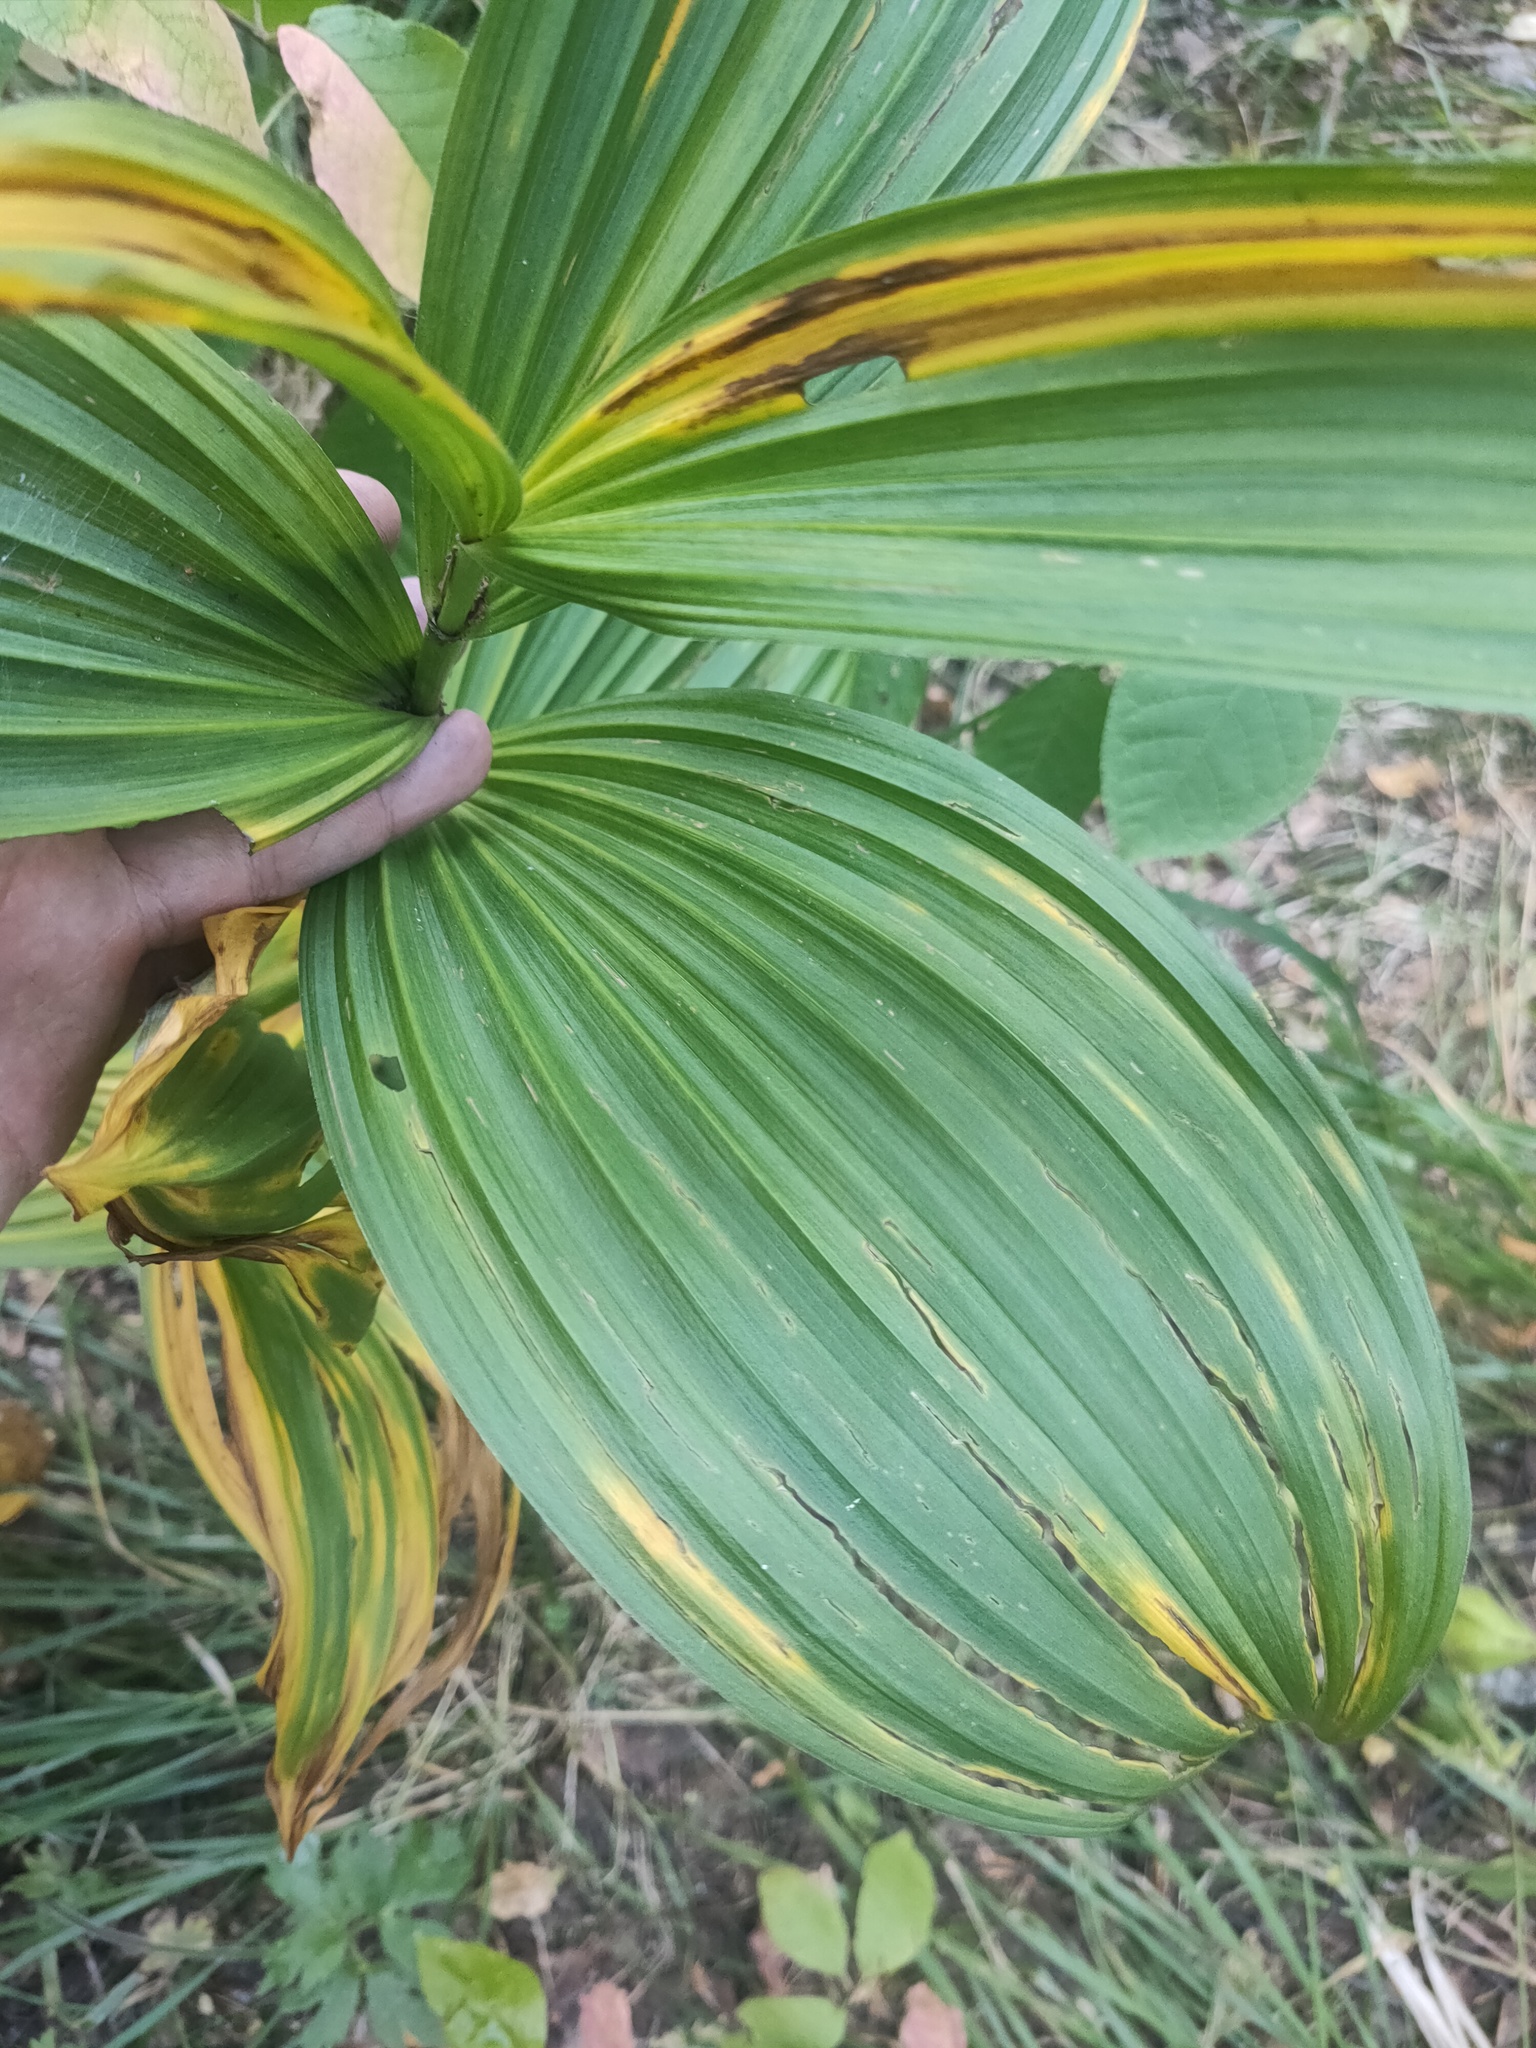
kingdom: Plantae
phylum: Tracheophyta
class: Liliopsida
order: Liliales
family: Melanthiaceae
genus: Veratrum
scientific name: Veratrum lobelianum
